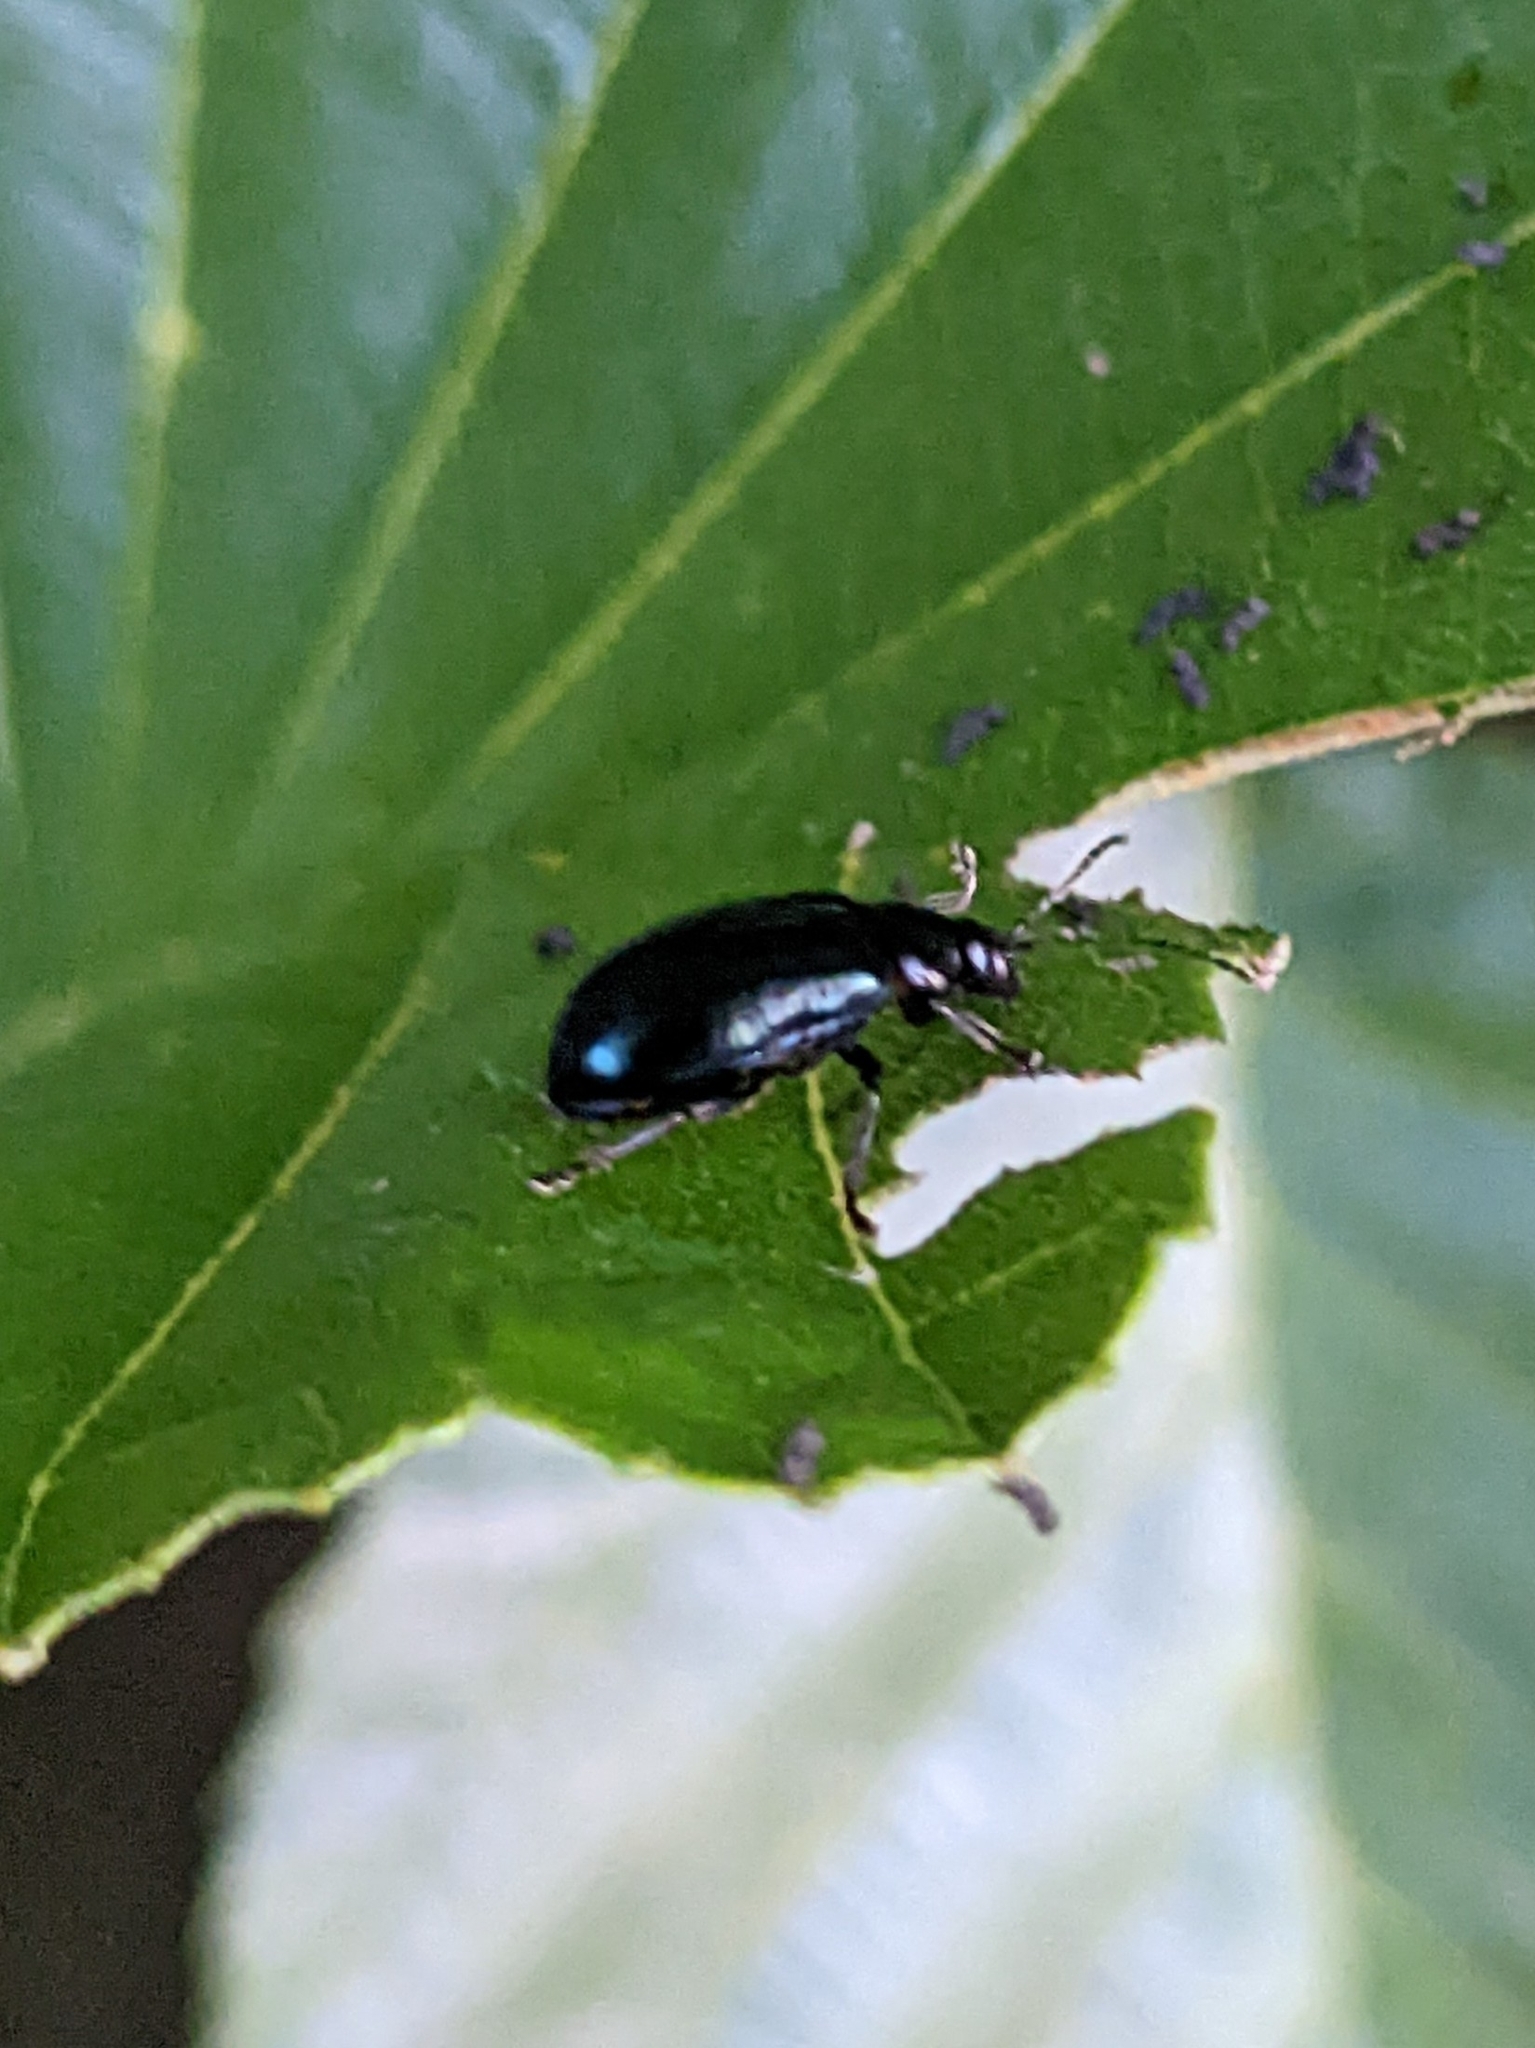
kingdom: Animalia
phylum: Arthropoda
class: Insecta
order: Coleoptera
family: Chrysomelidae
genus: Agelastica
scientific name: Agelastica alni
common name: Alder leaf beetle
